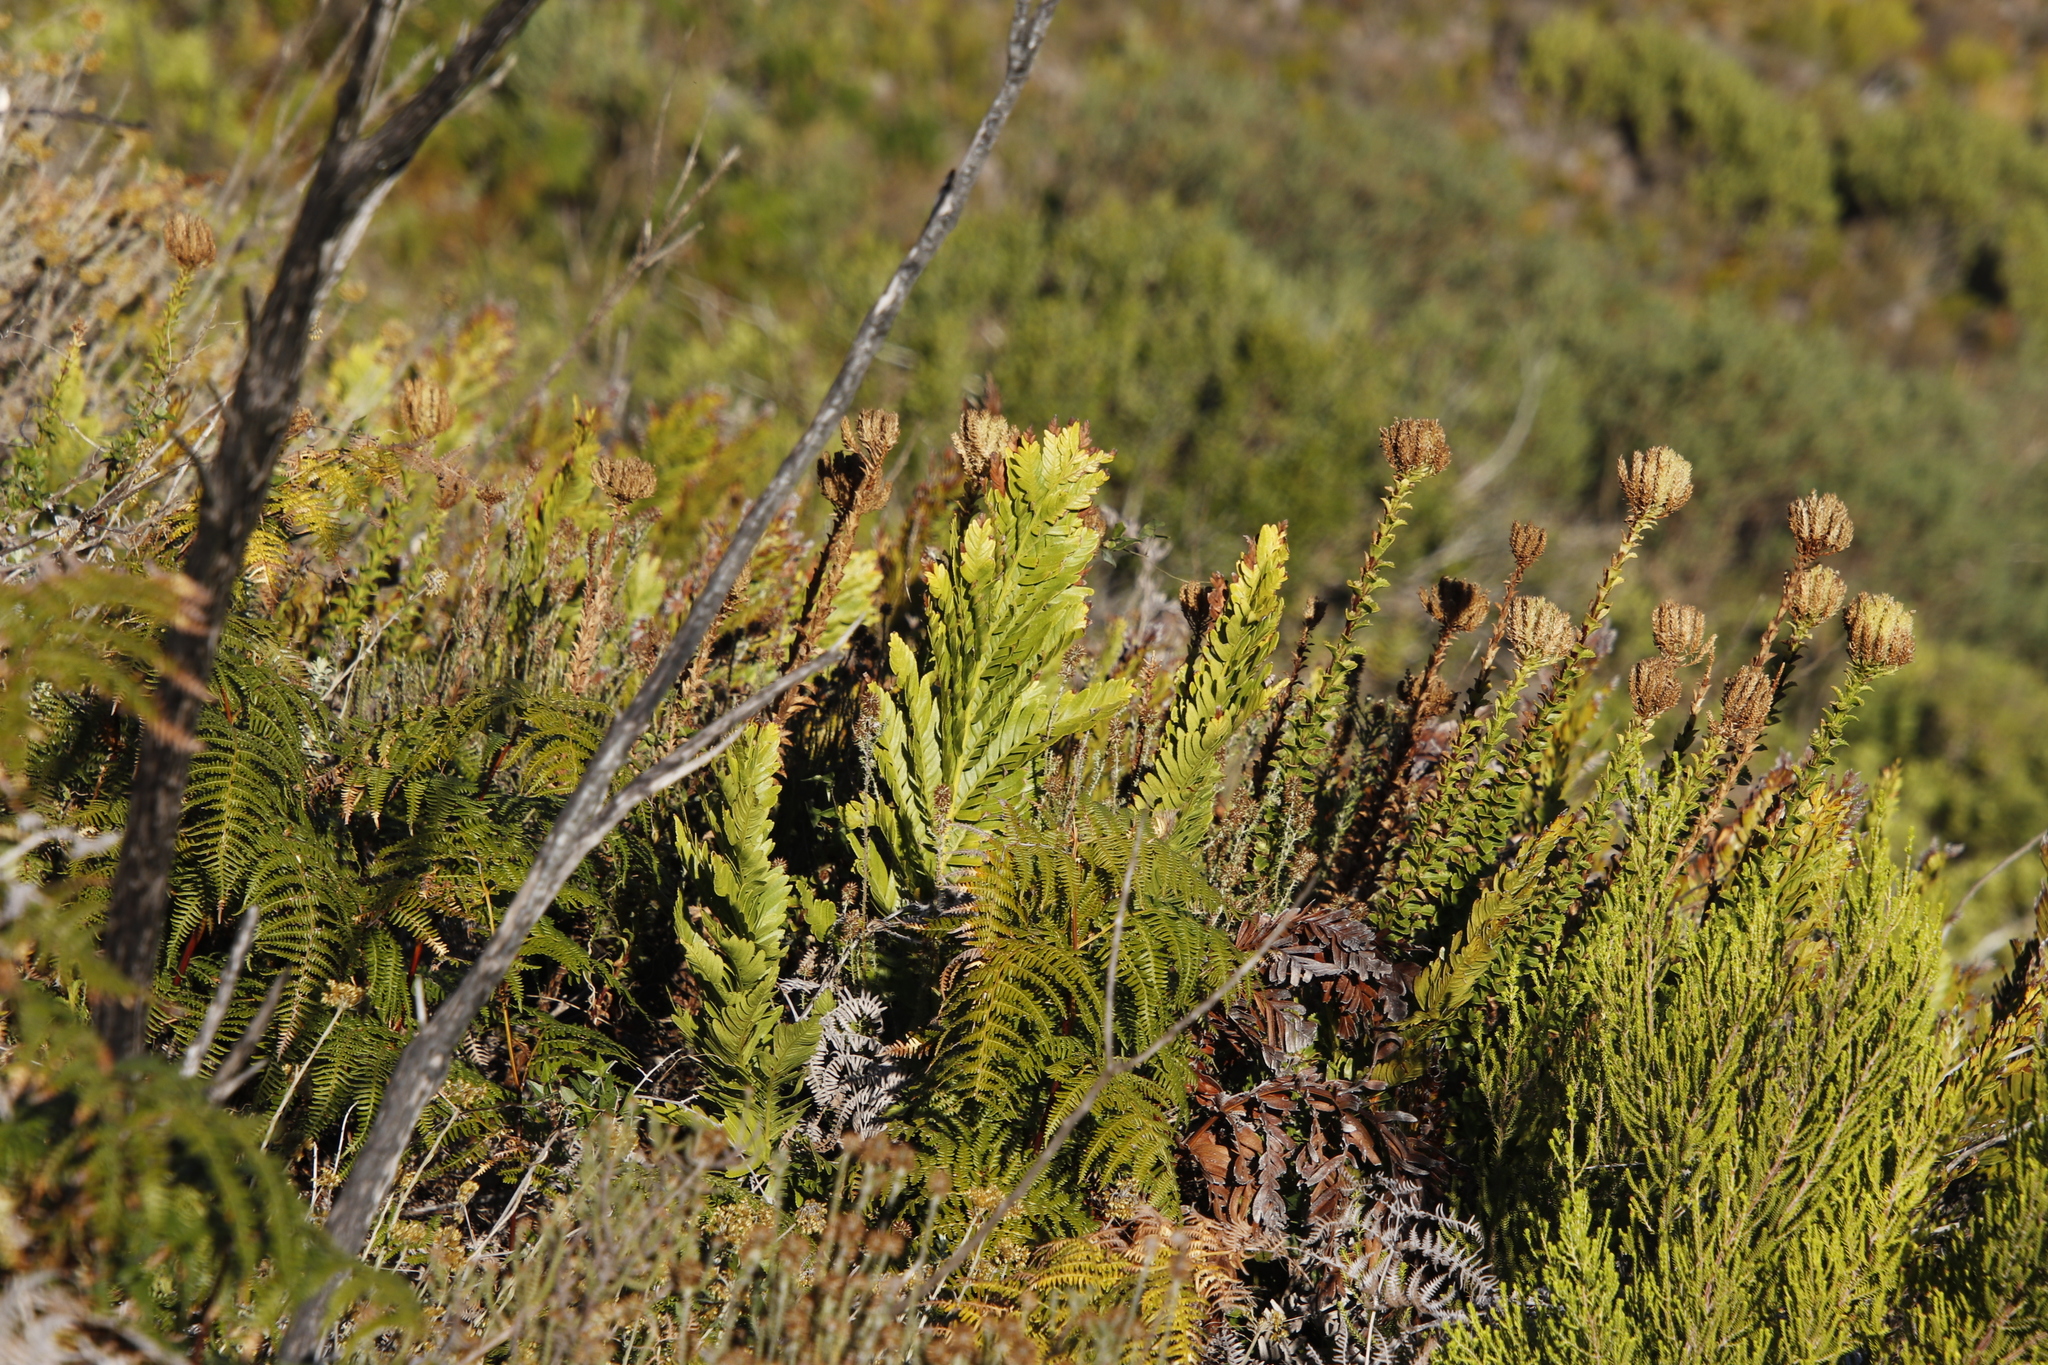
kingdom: Plantae
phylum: Tracheophyta
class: Polypodiopsida
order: Osmundales
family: Osmundaceae
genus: Todea
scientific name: Todea barbara
